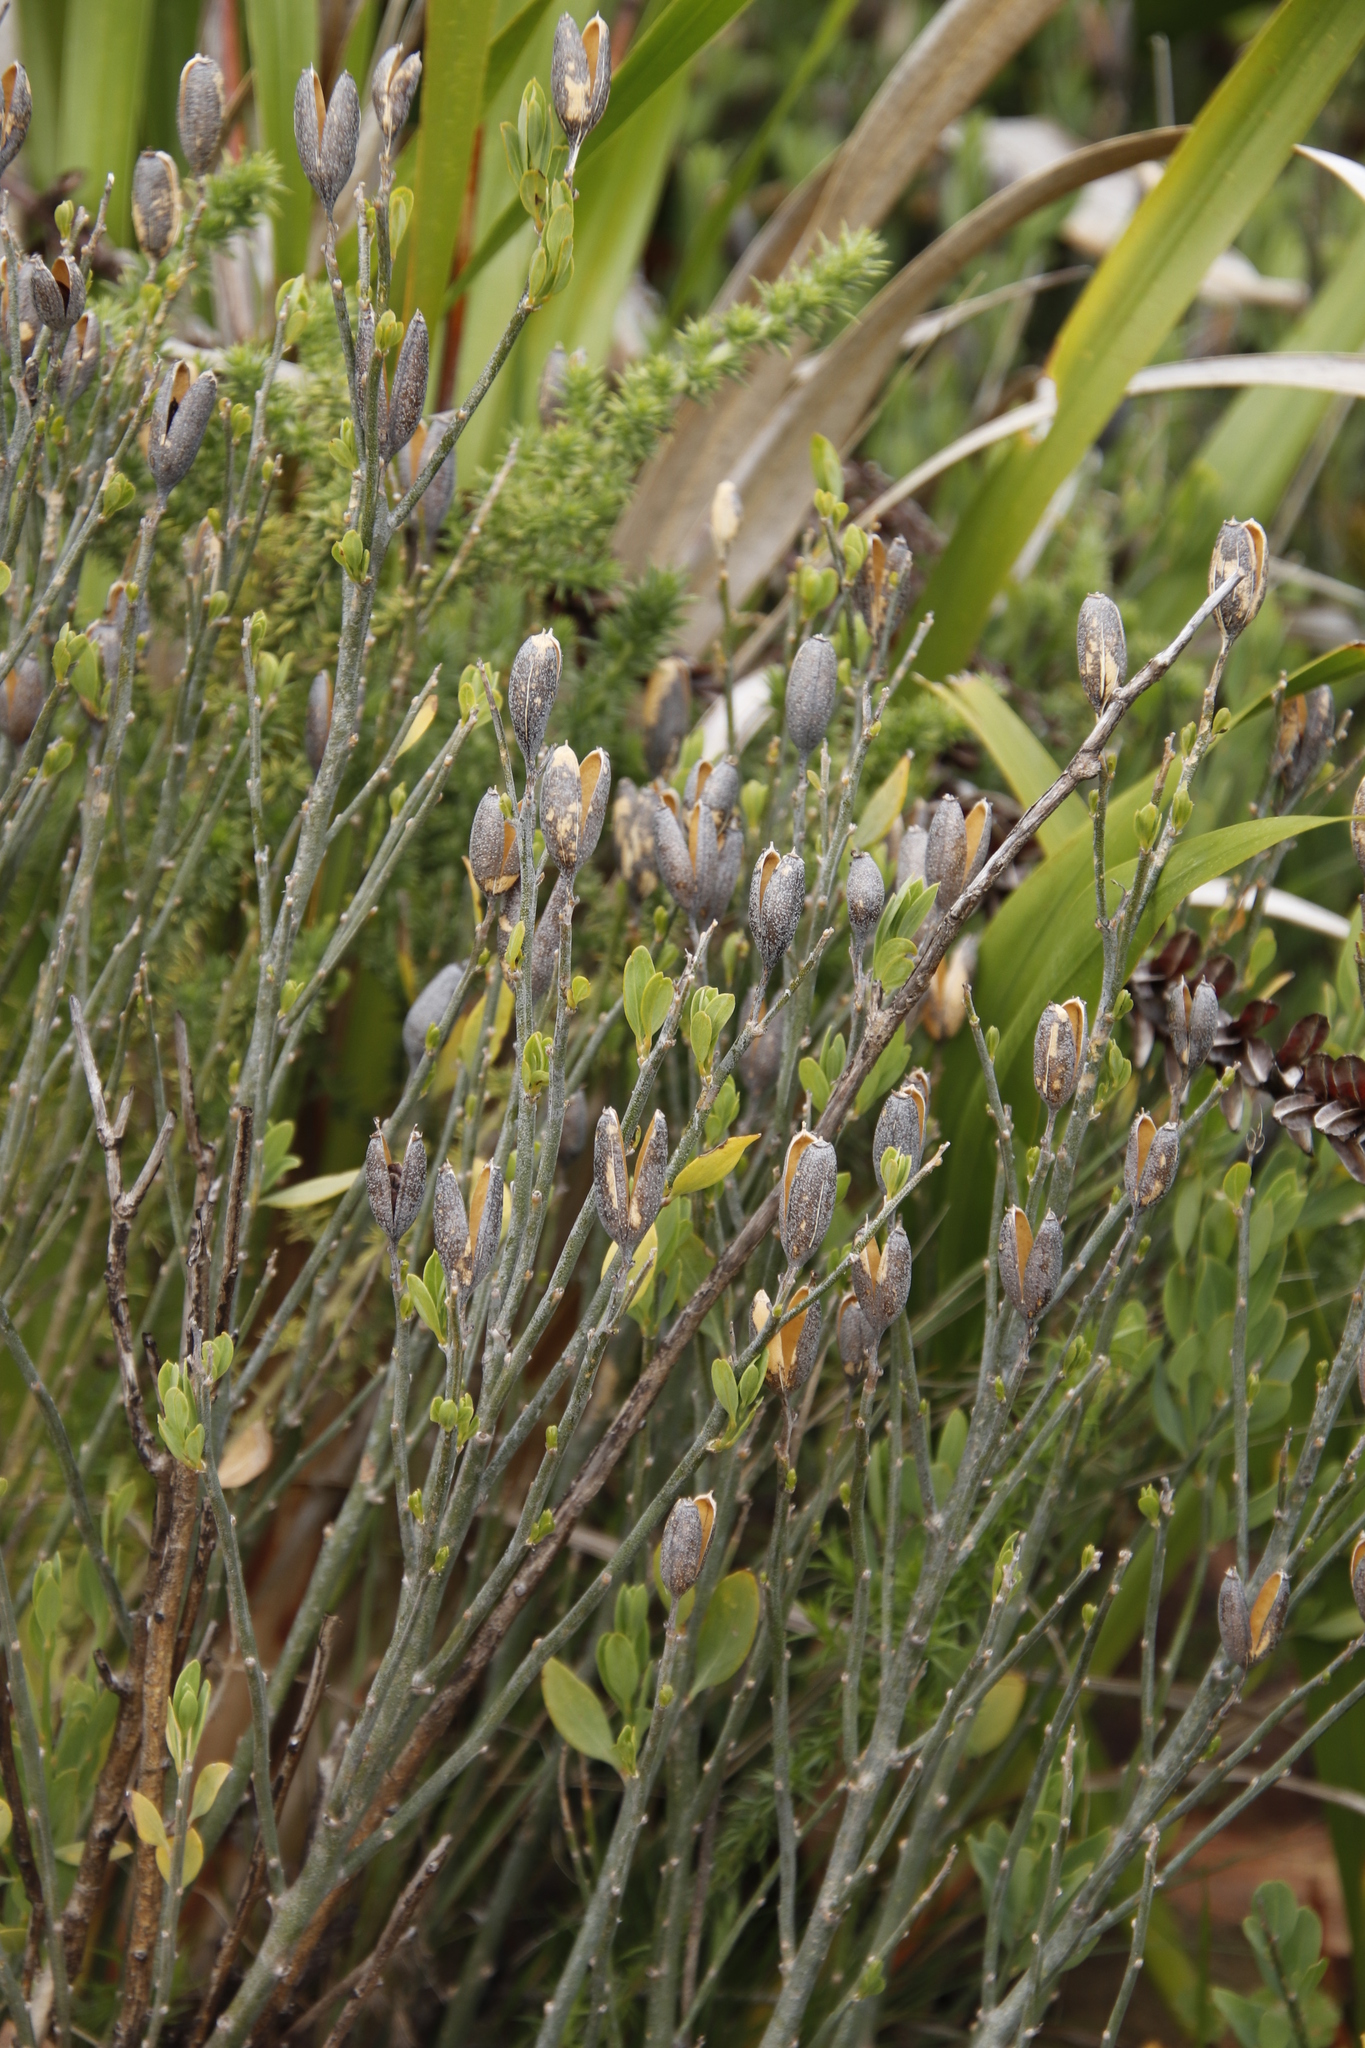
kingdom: Plantae
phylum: Tracheophyta
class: Magnoliopsida
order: Solanales
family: Montiniaceae
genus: Montinia
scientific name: Montinia caryophyllacea
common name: Wild clove-bush
